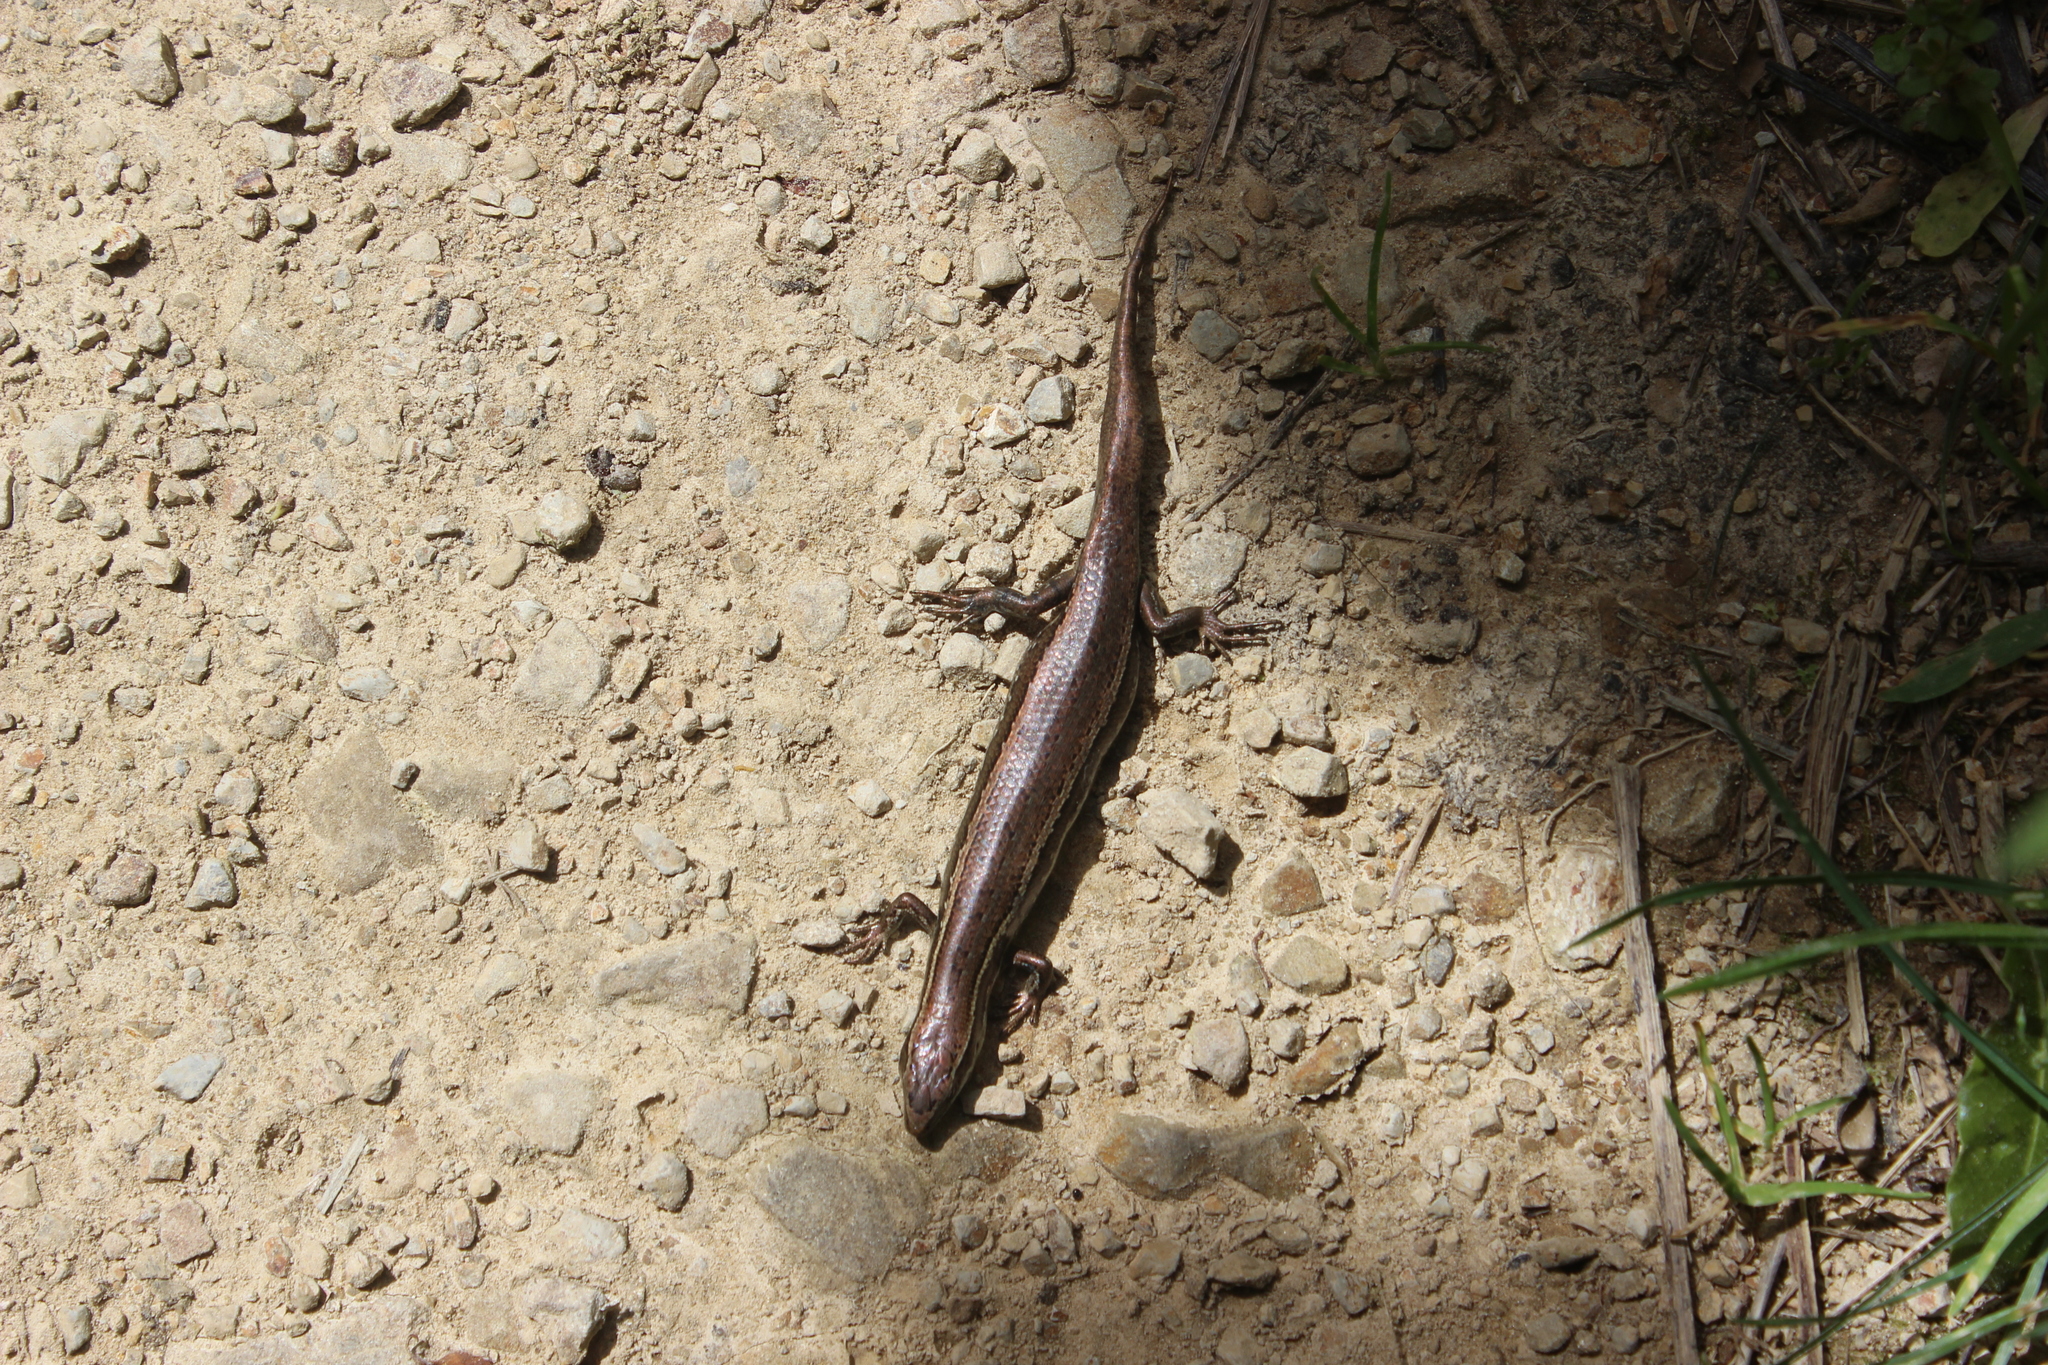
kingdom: Animalia
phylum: Chordata
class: Squamata
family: Scincidae
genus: Oligosoma
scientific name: Oligosoma polychroma
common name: Common new zealand skink
